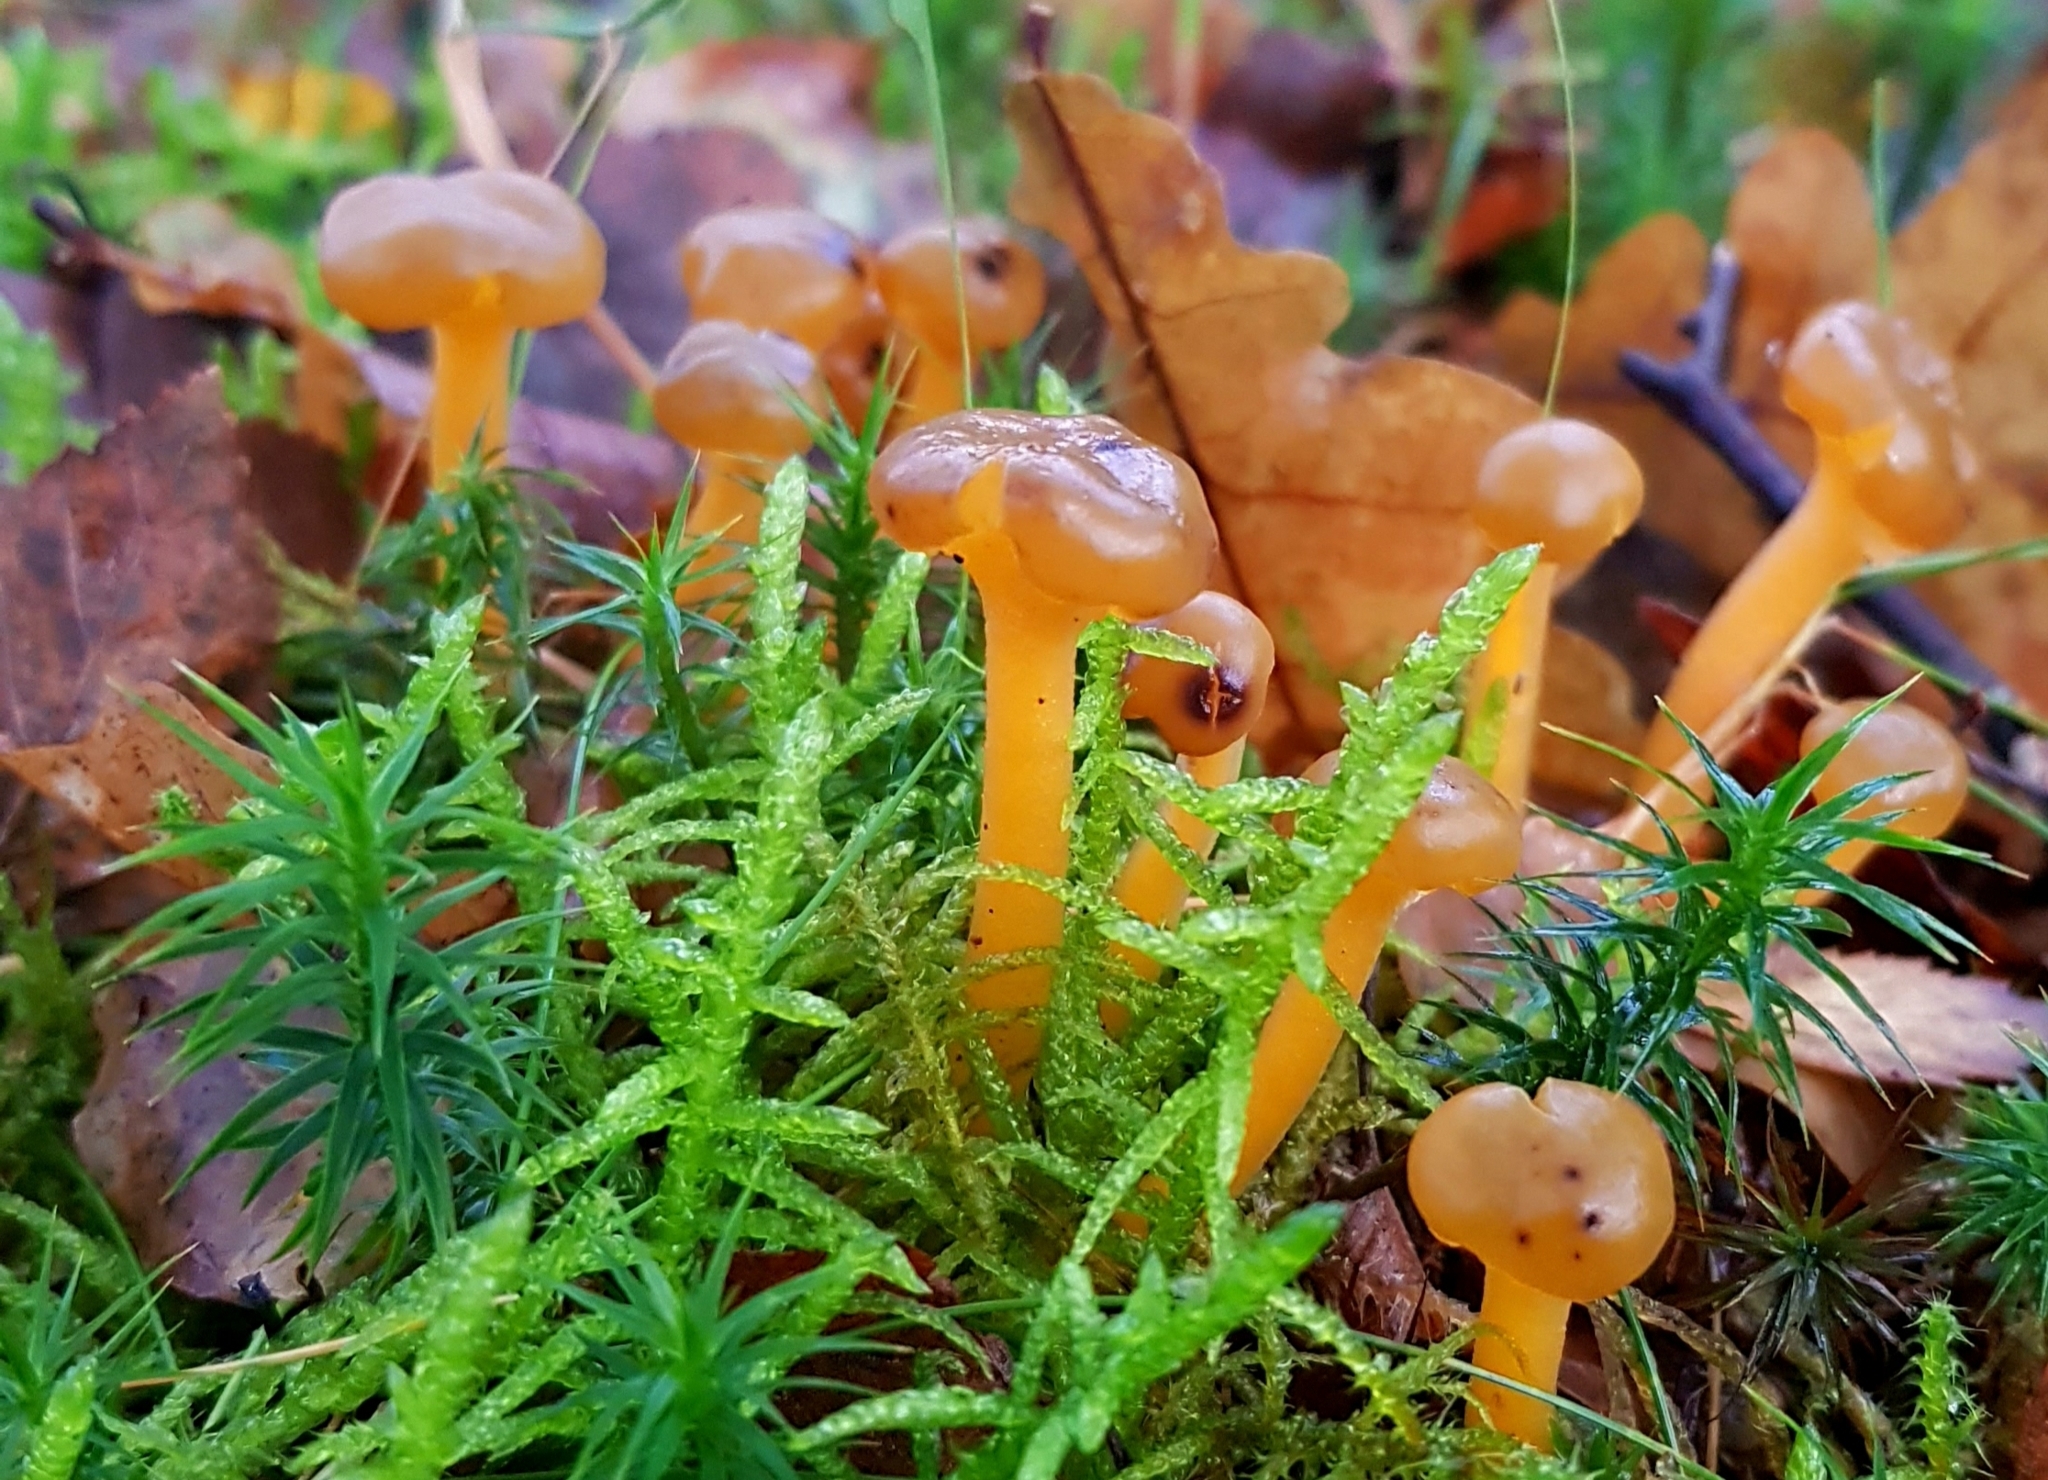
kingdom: Fungi
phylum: Ascomycota
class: Leotiomycetes
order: Leotiales
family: Leotiaceae
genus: Leotia
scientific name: Leotia lubrica
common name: Jellybaby
